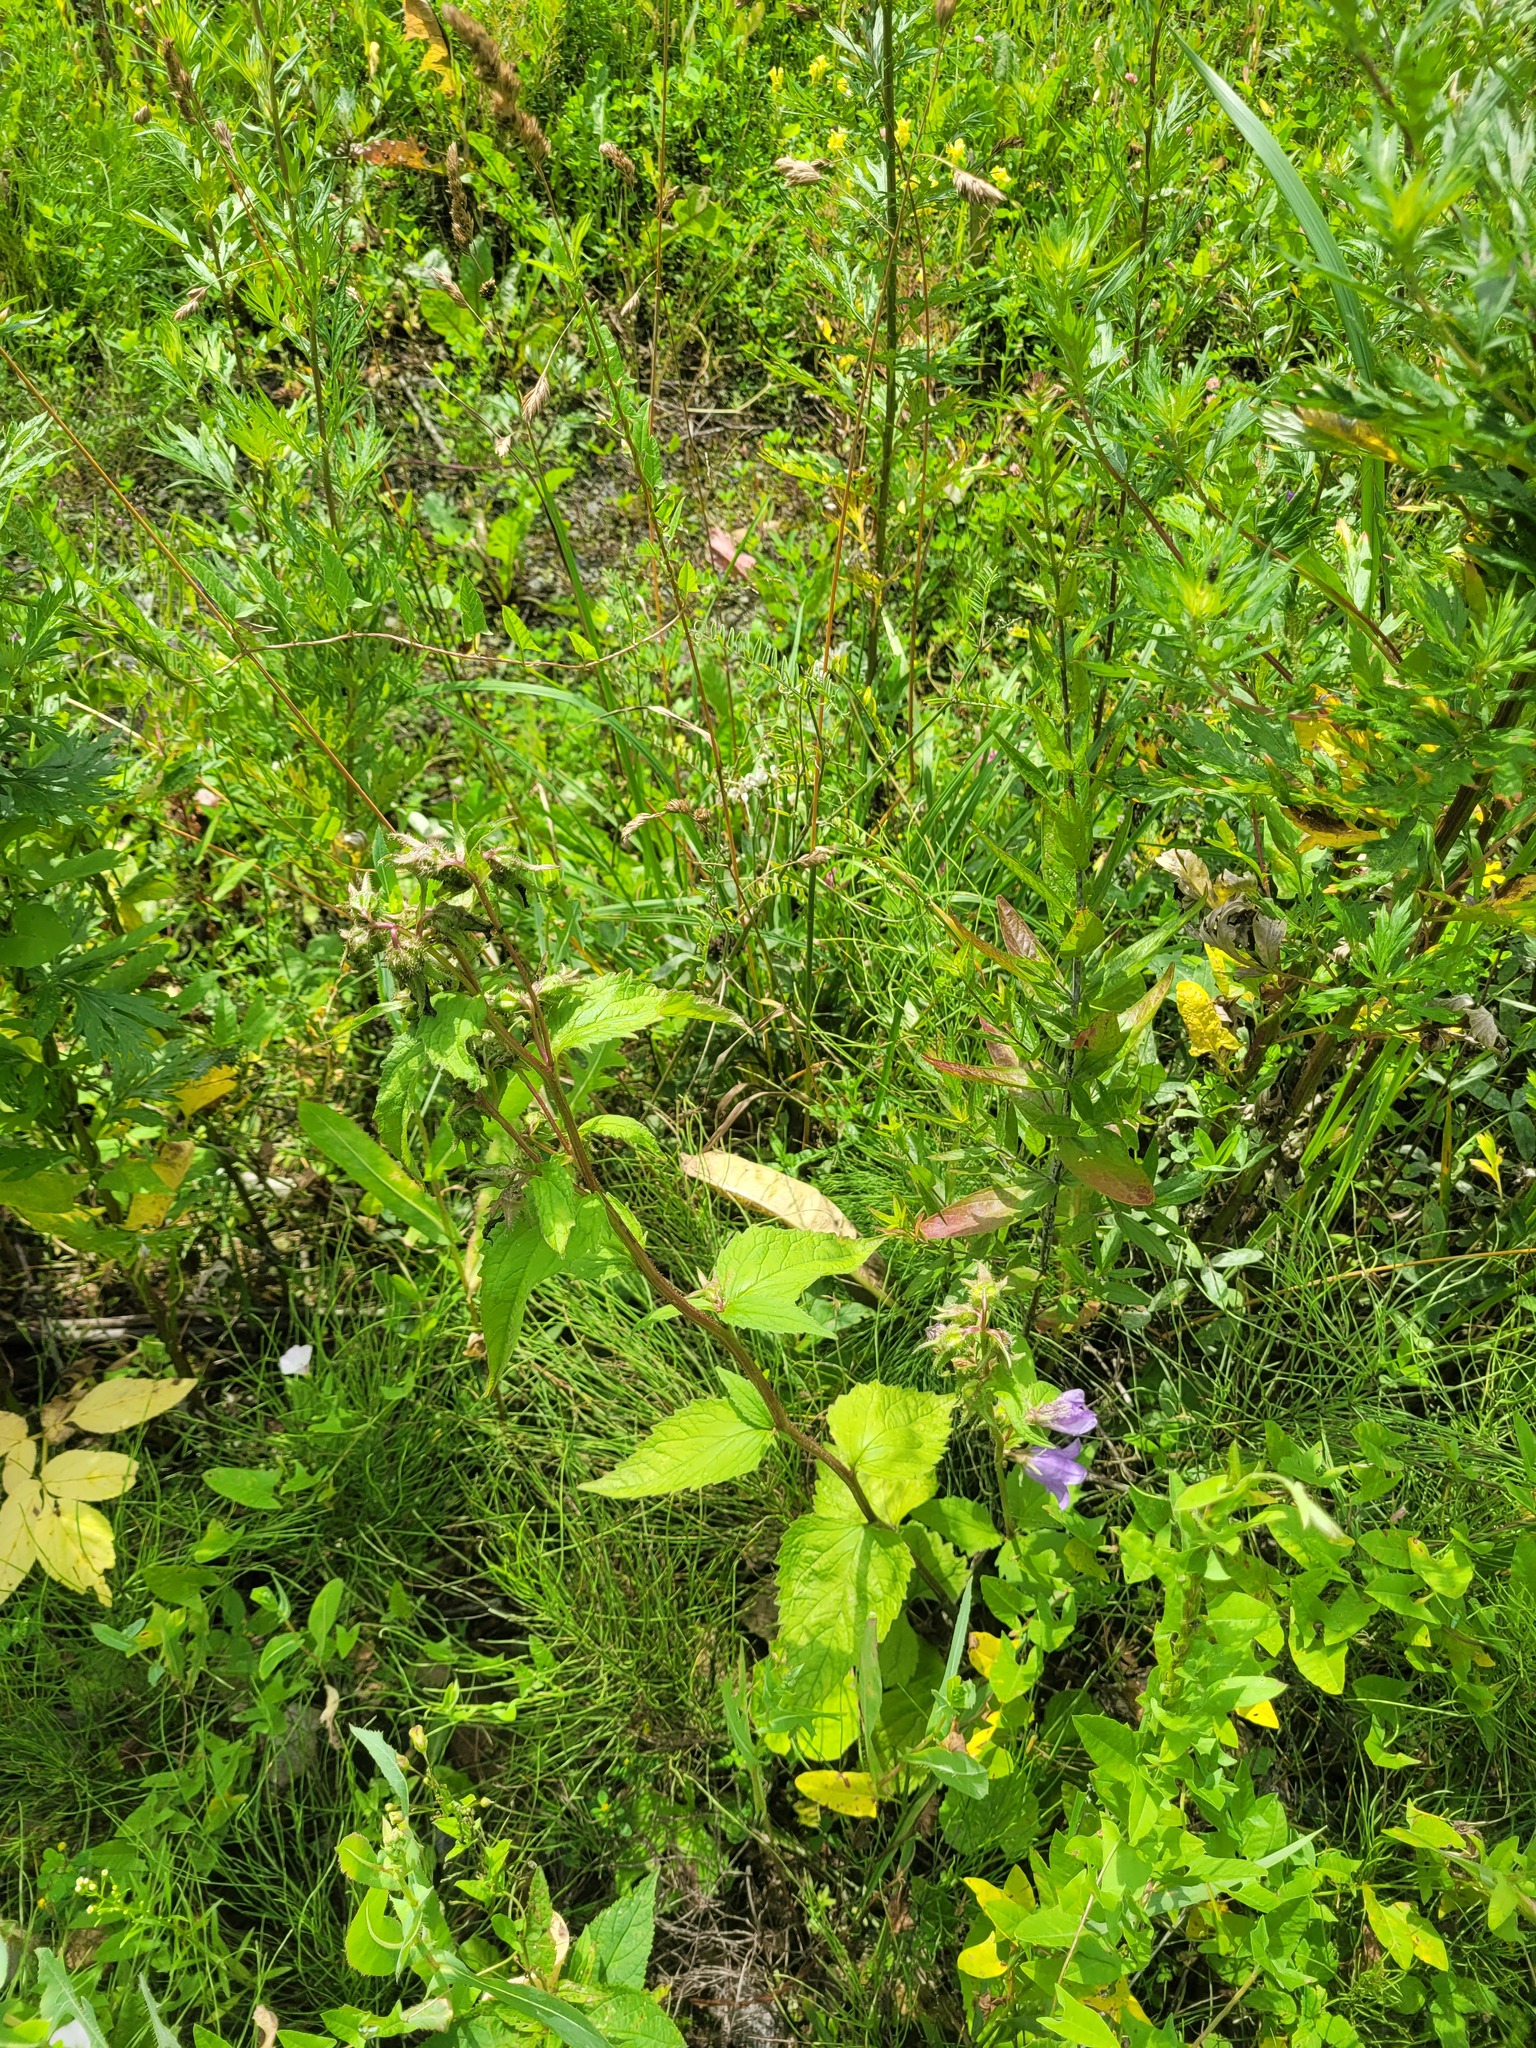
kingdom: Plantae
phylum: Tracheophyta
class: Magnoliopsida
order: Asterales
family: Campanulaceae
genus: Campanula
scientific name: Campanula trachelium
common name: Nettle-leaved bellflower
